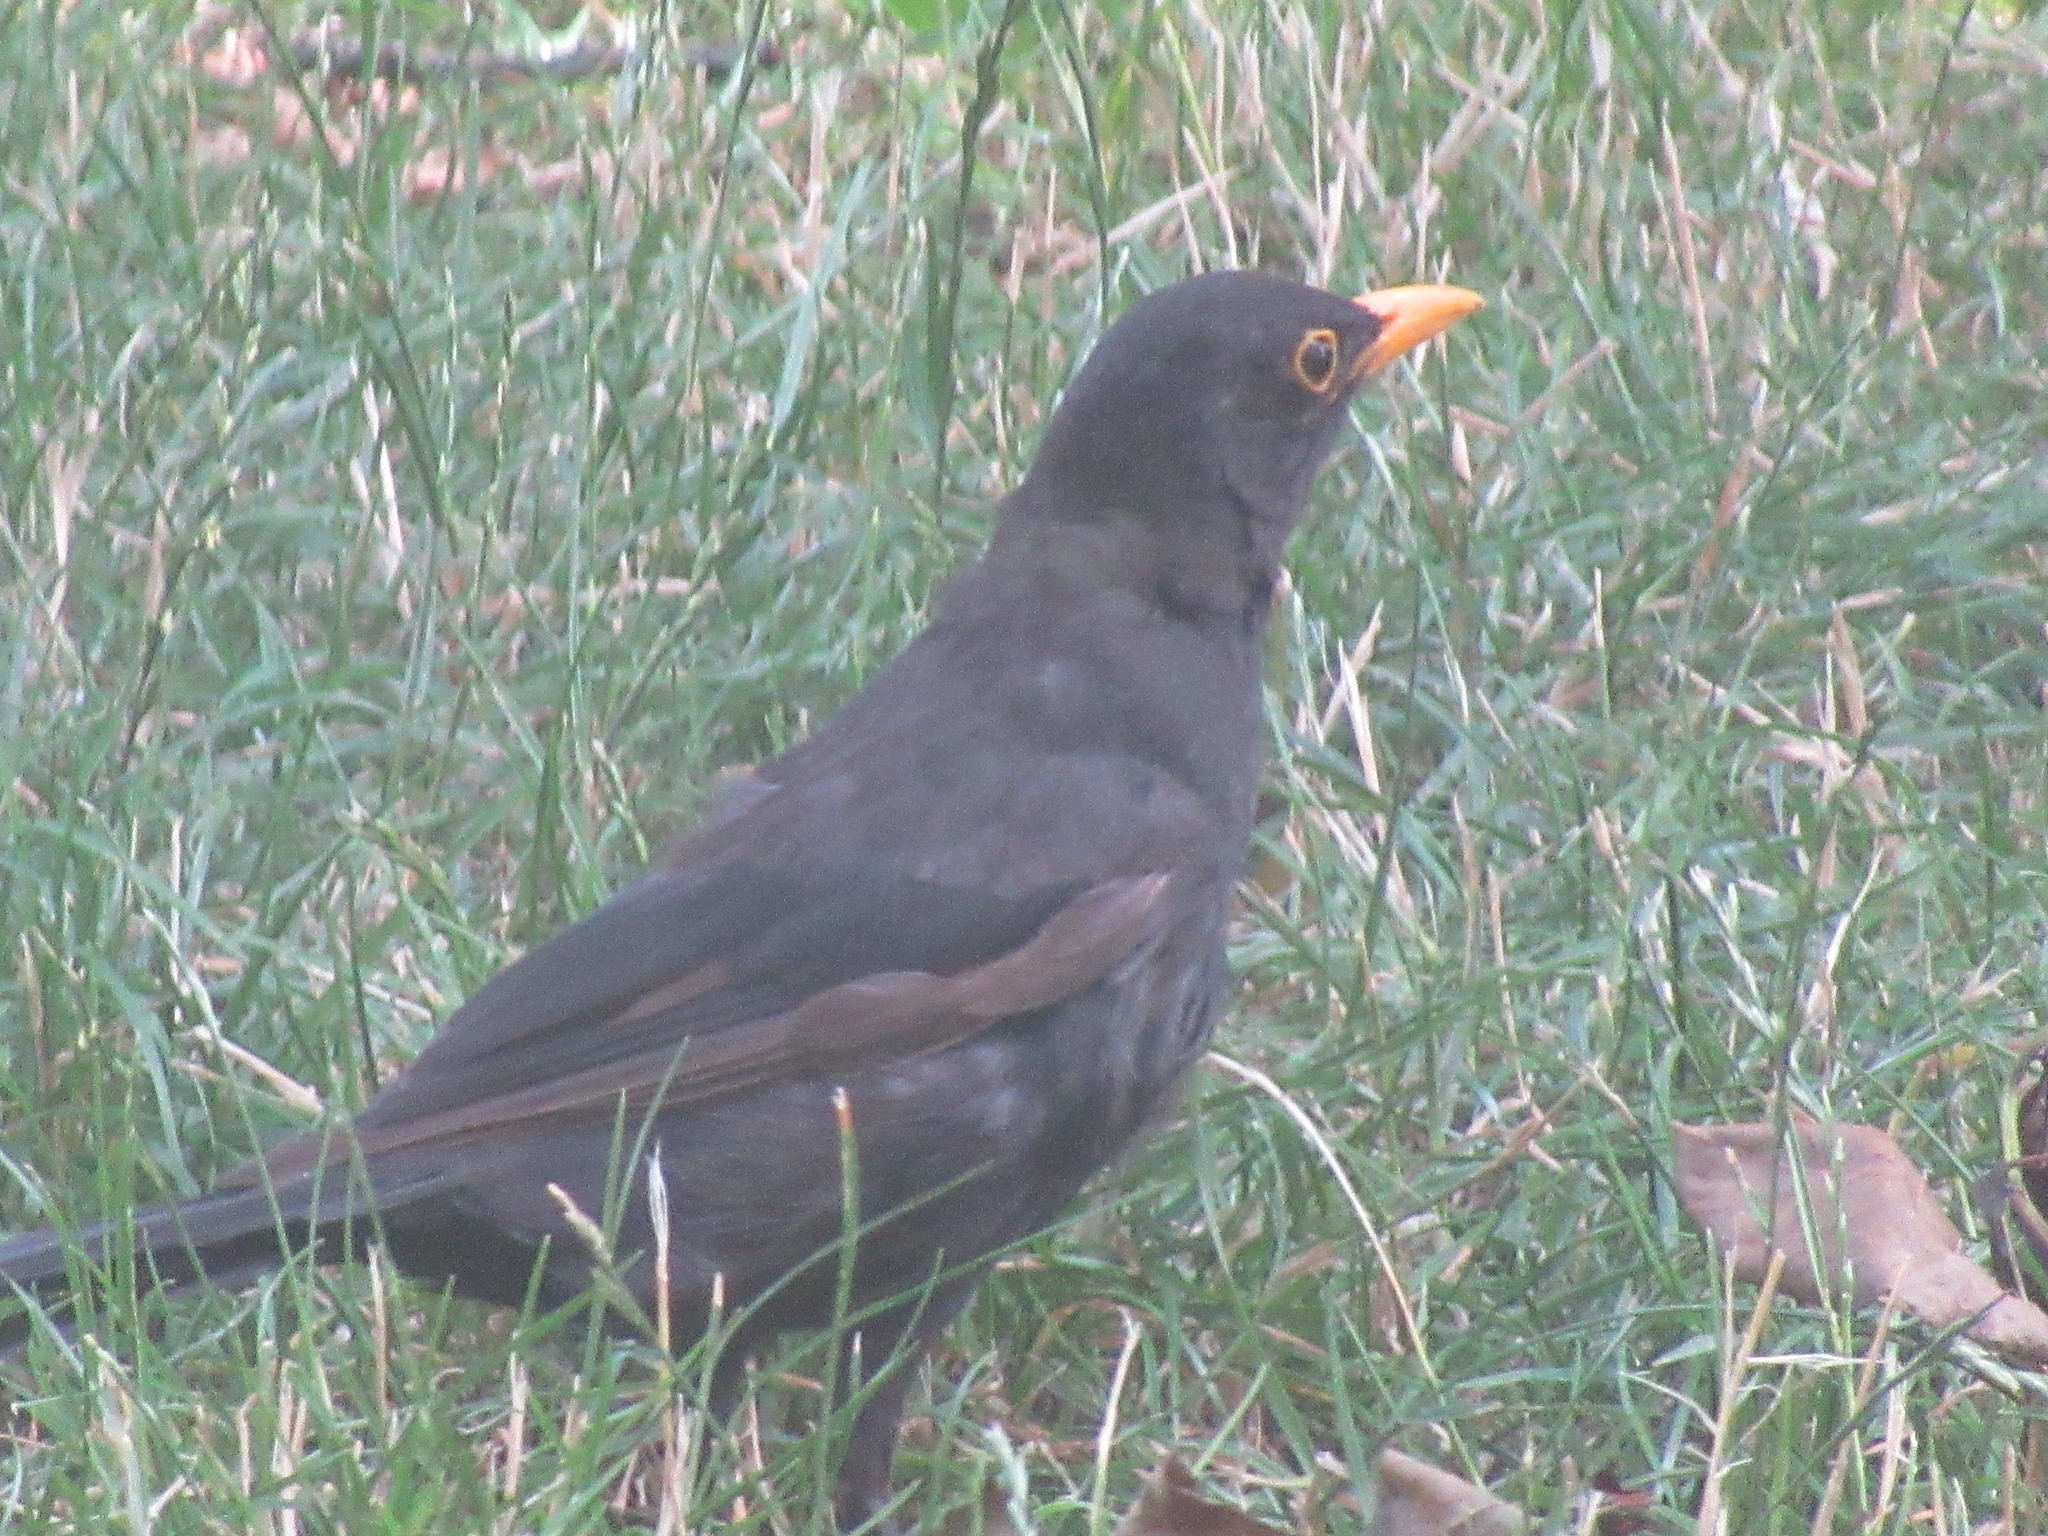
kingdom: Animalia
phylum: Chordata
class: Aves
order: Passeriformes
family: Turdidae
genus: Turdus
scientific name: Turdus merula
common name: Common blackbird
